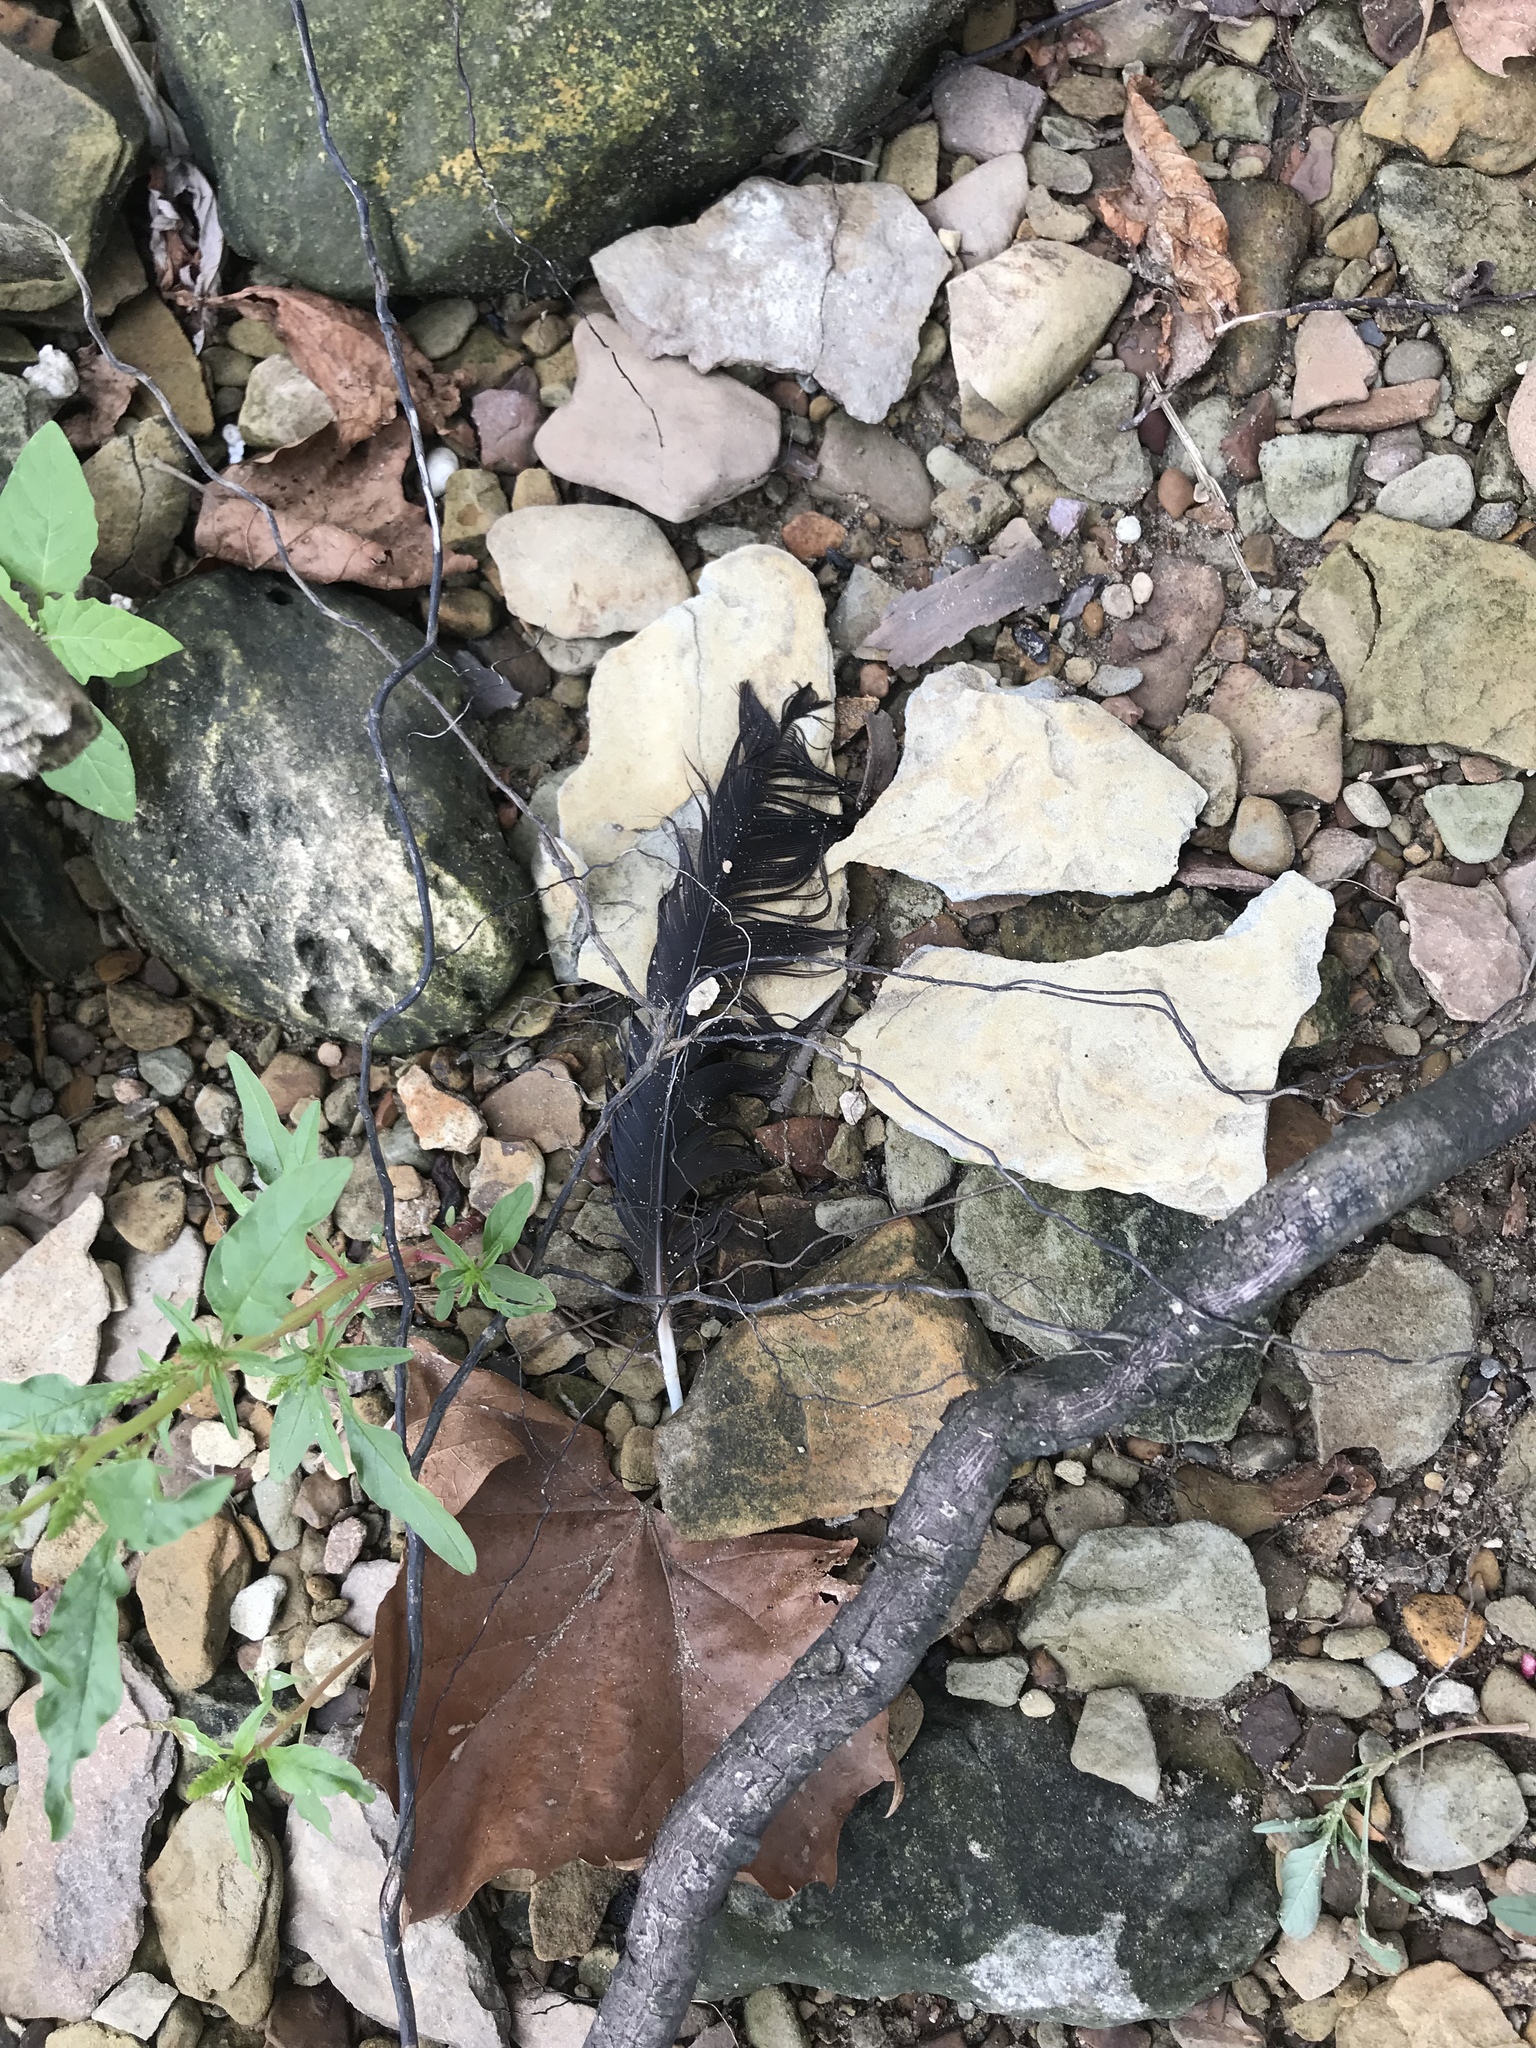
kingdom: Animalia
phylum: Chordata
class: Aves
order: Passeriformes
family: Corvidae
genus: Corvus
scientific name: Corvus brachyrhynchos
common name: American crow
